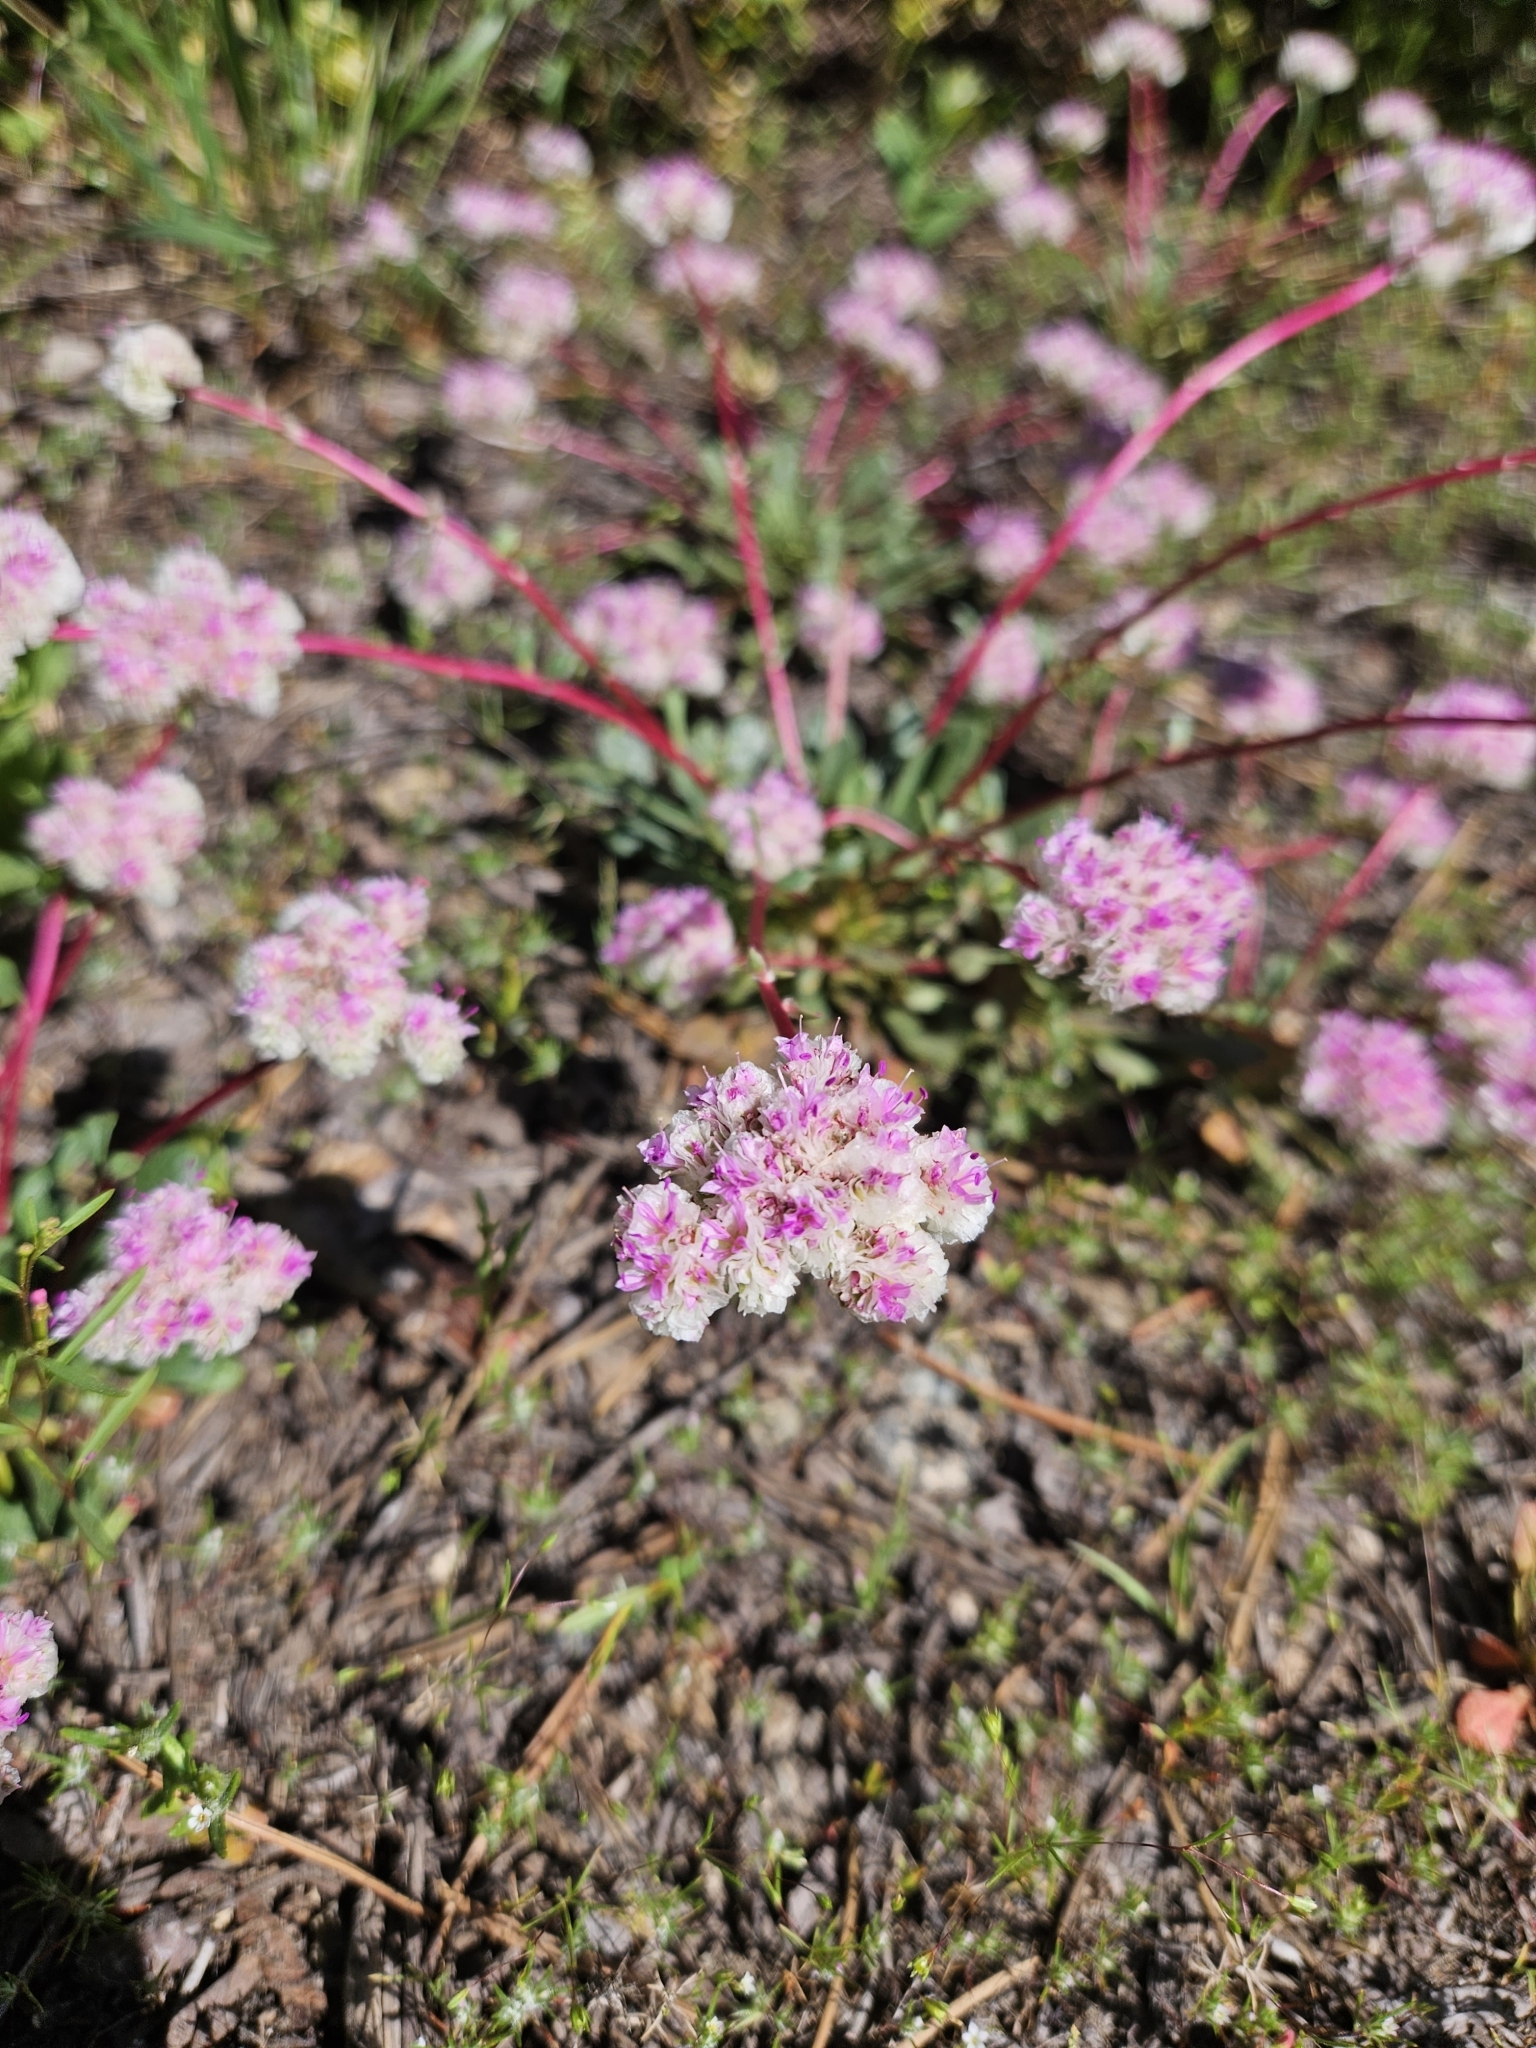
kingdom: Plantae
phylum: Tracheophyta
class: Magnoliopsida
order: Caryophyllales
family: Montiaceae
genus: Calyptridium
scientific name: Calyptridium monospermum
